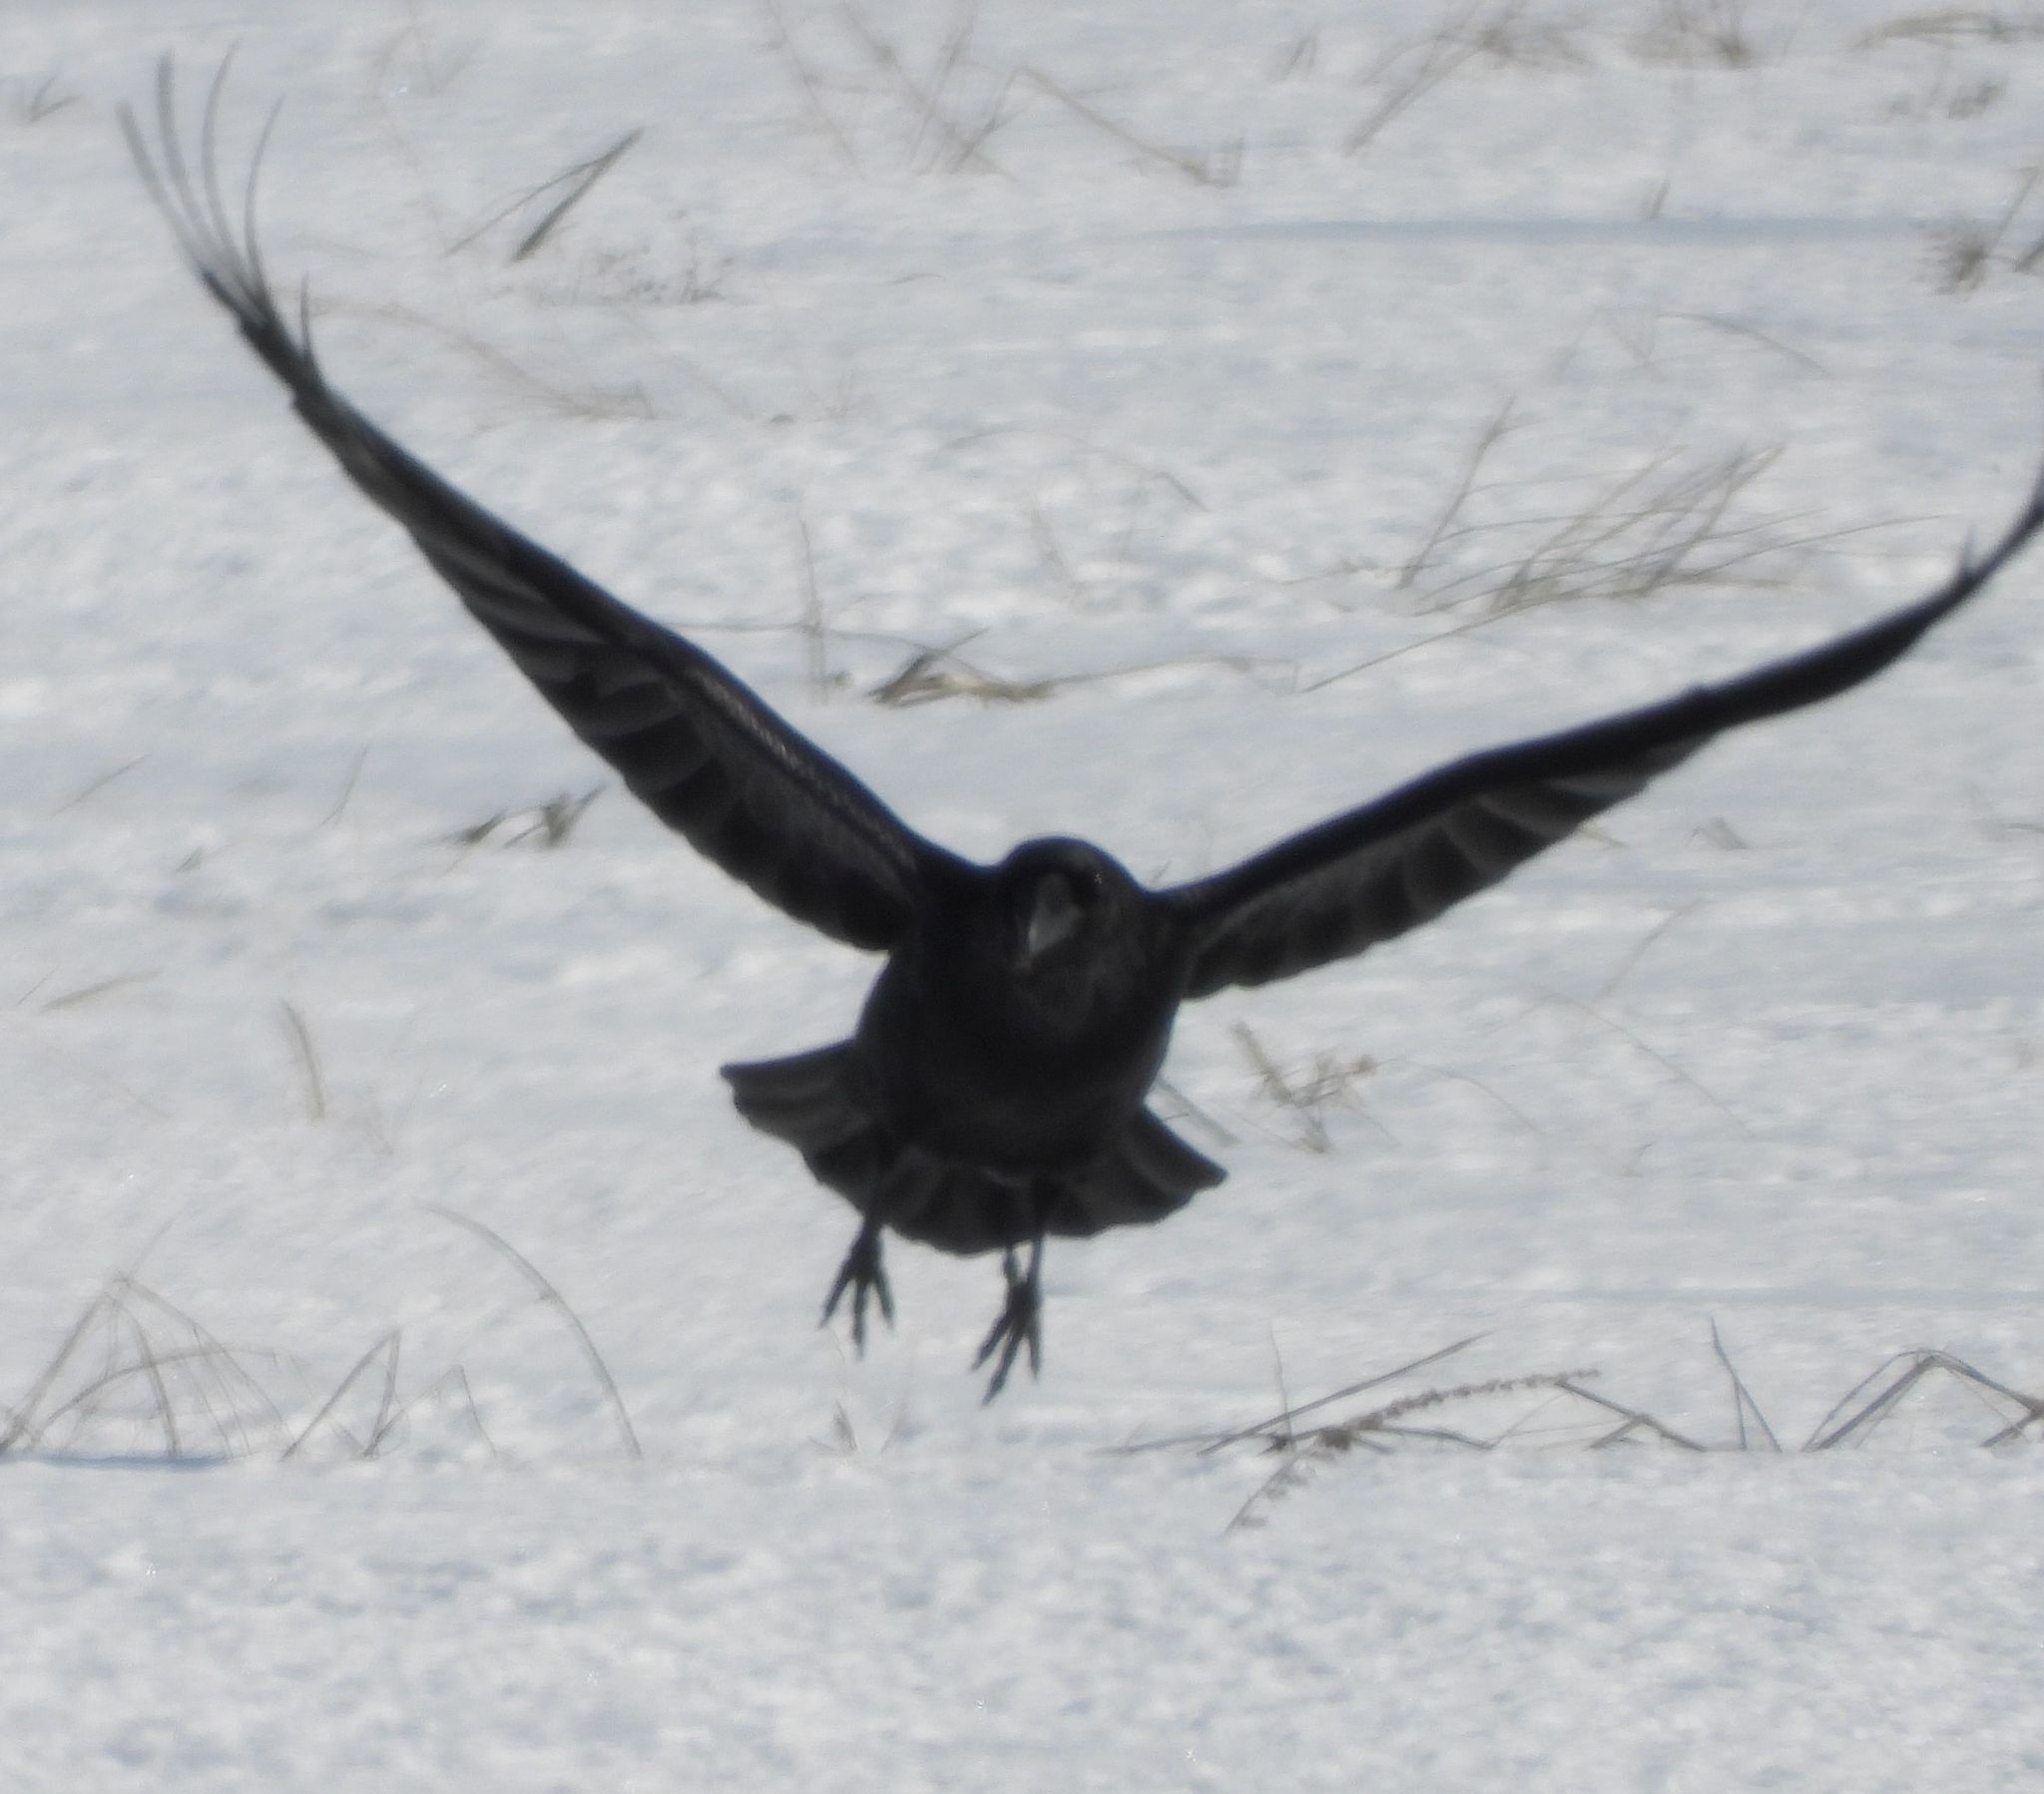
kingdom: Animalia
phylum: Chordata
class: Aves
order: Passeriformes
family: Corvidae
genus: Corvus
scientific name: Corvus brachyrhynchos
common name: American crow
